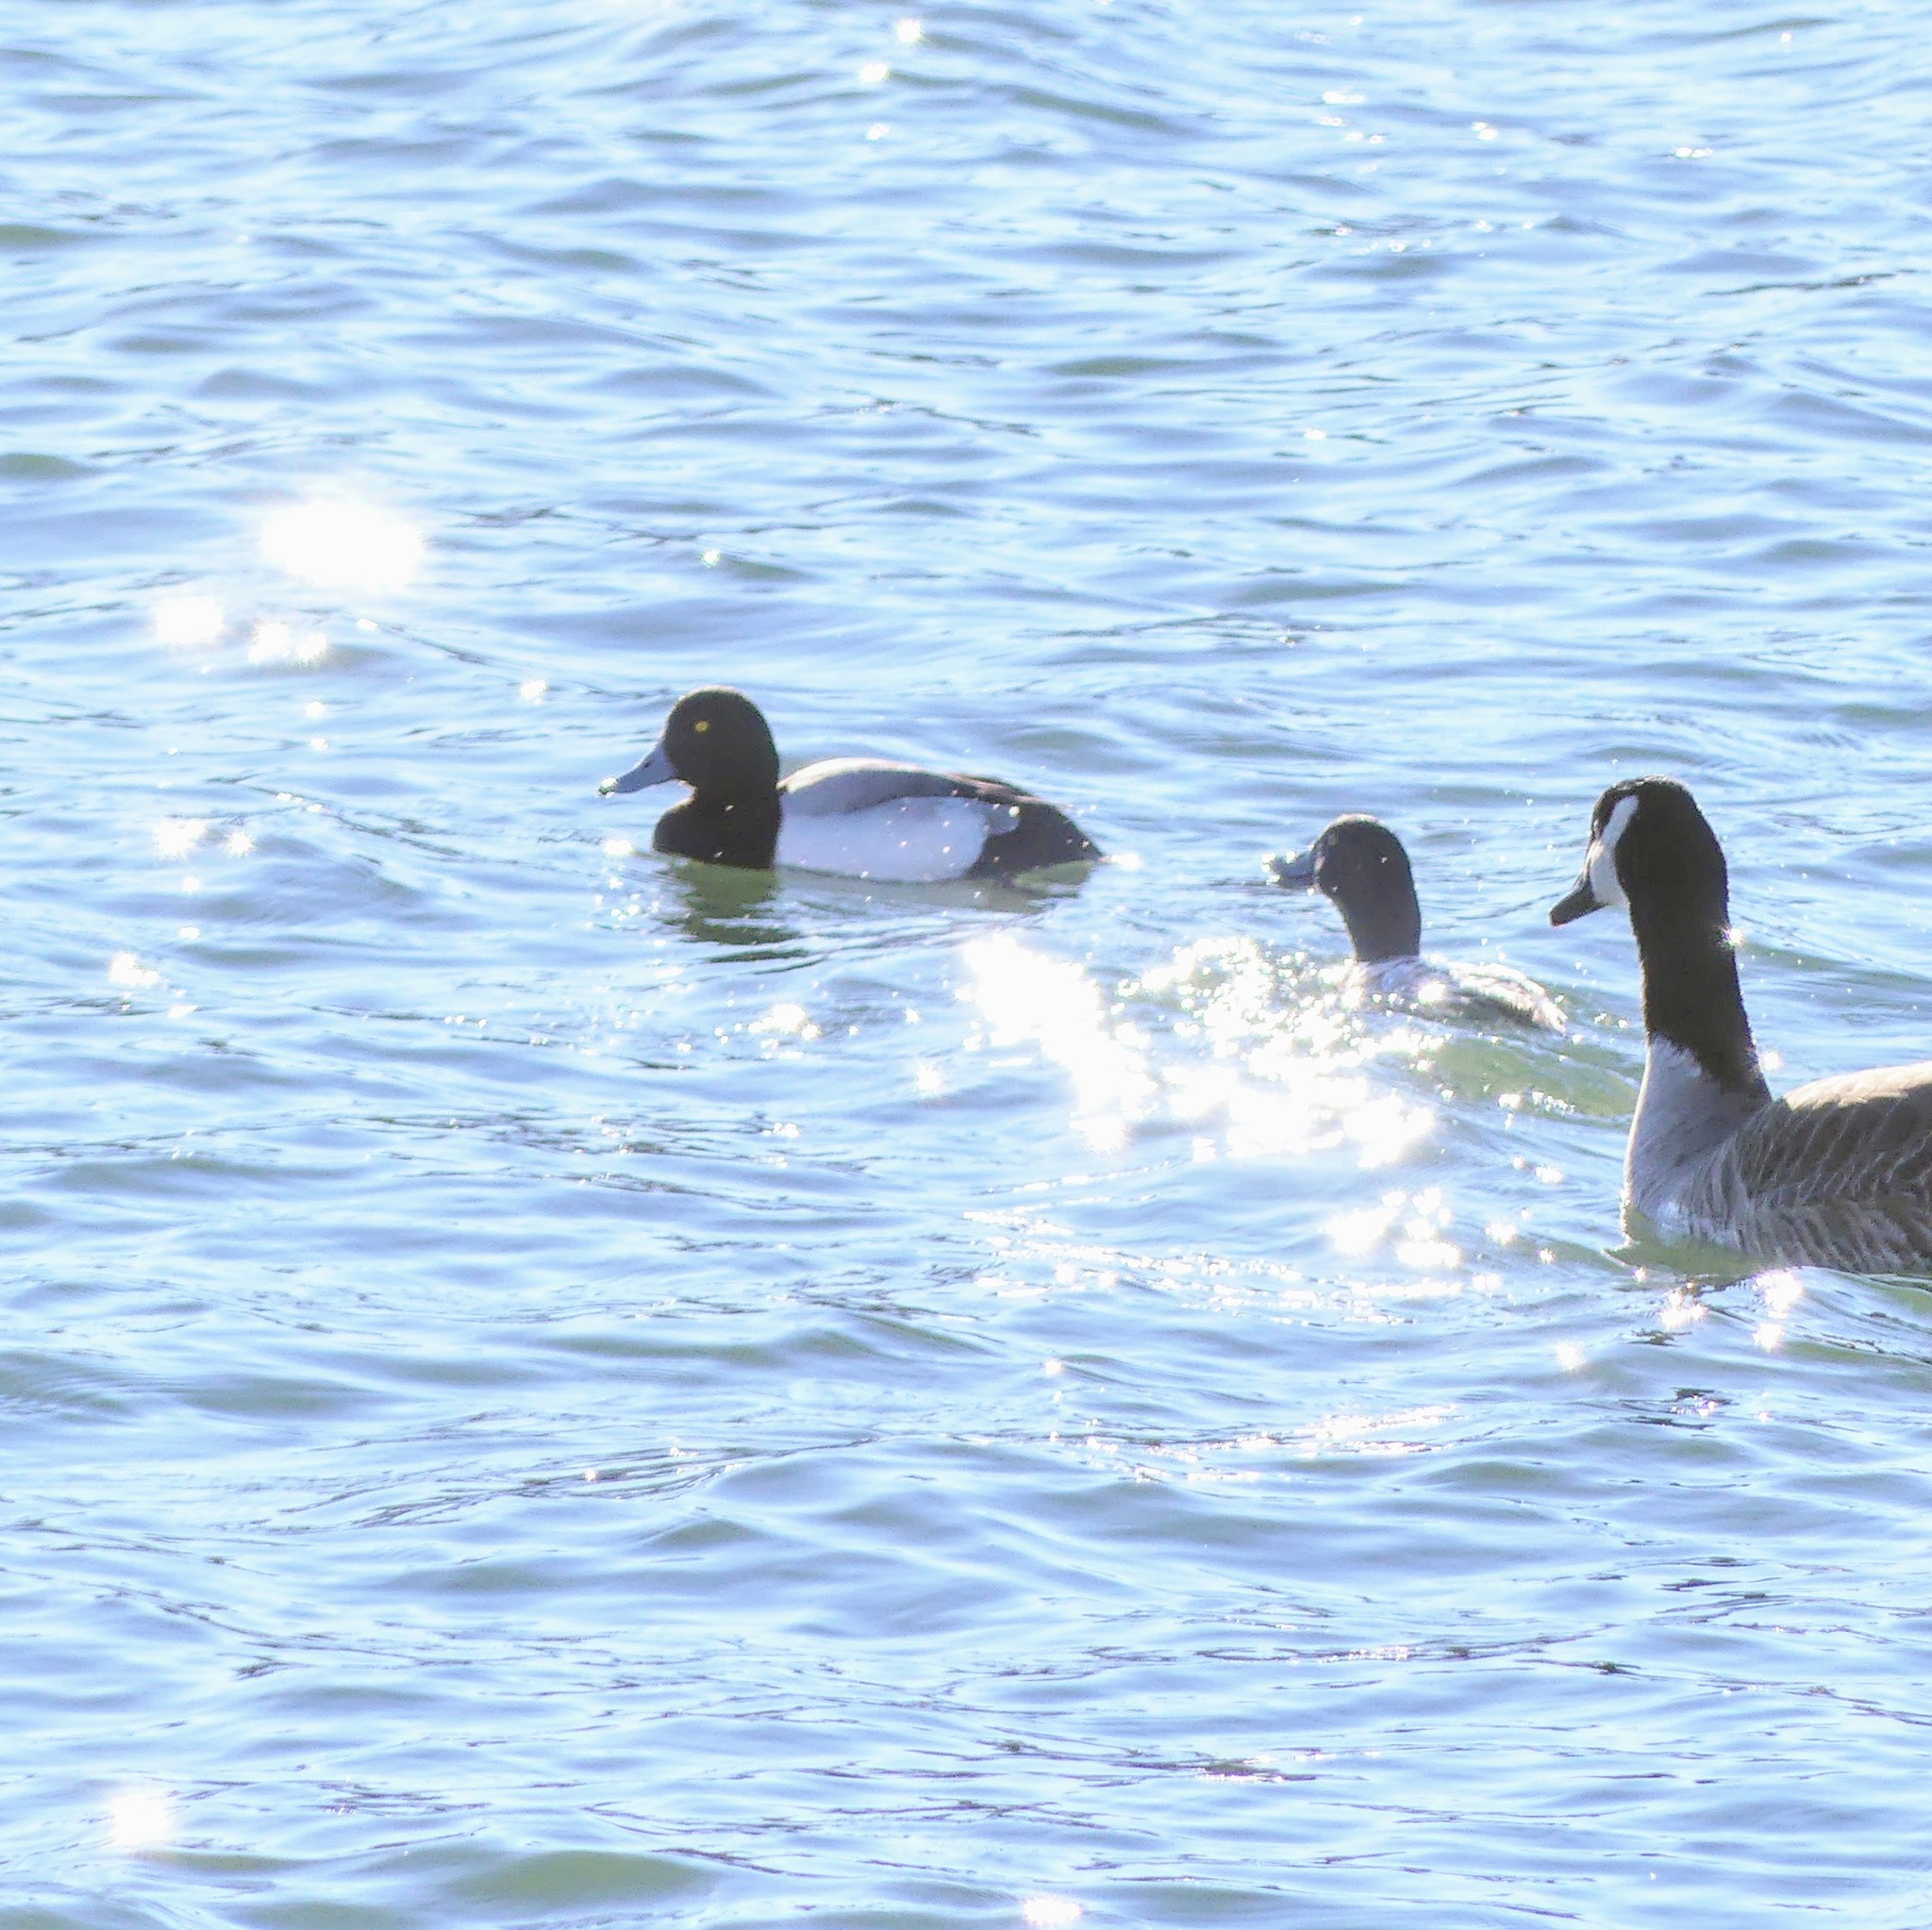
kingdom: Animalia
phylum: Chordata
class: Aves
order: Anseriformes
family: Anatidae
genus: Aythya
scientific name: Aythya marila
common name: Greater scaup
